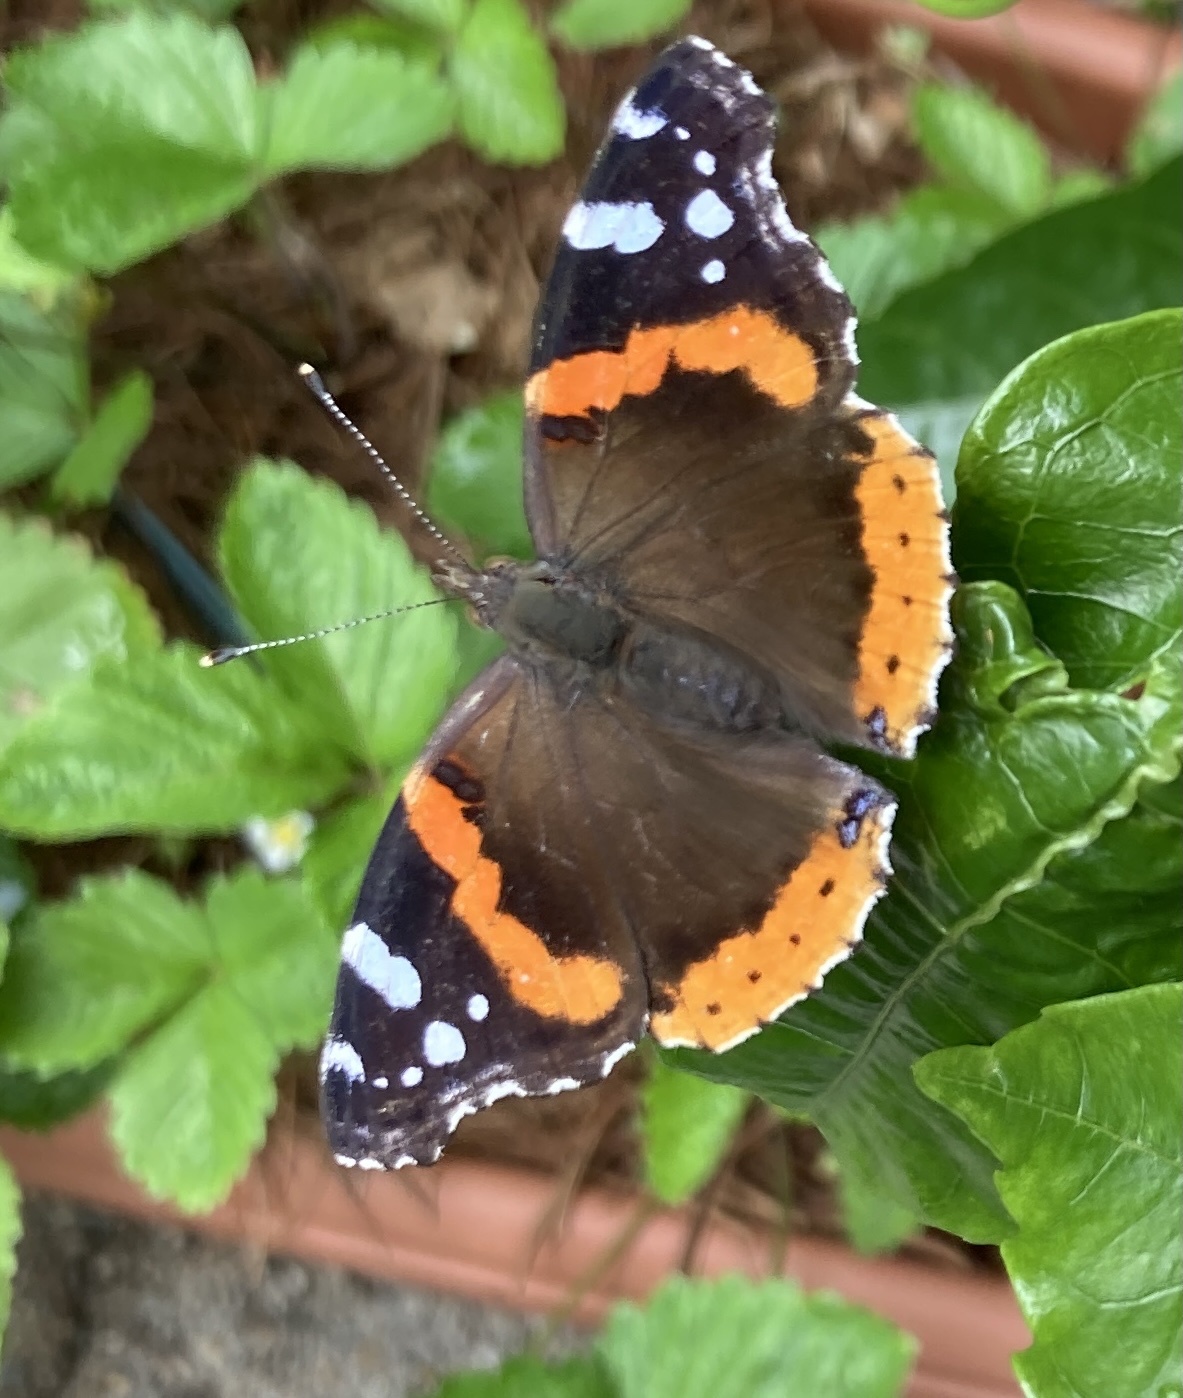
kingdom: Animalia
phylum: Arthropoda
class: Insecta
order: Lepidoptera
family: Nymphalidae
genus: Vanessa
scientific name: Vanessa atalanta
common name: Red admiral
